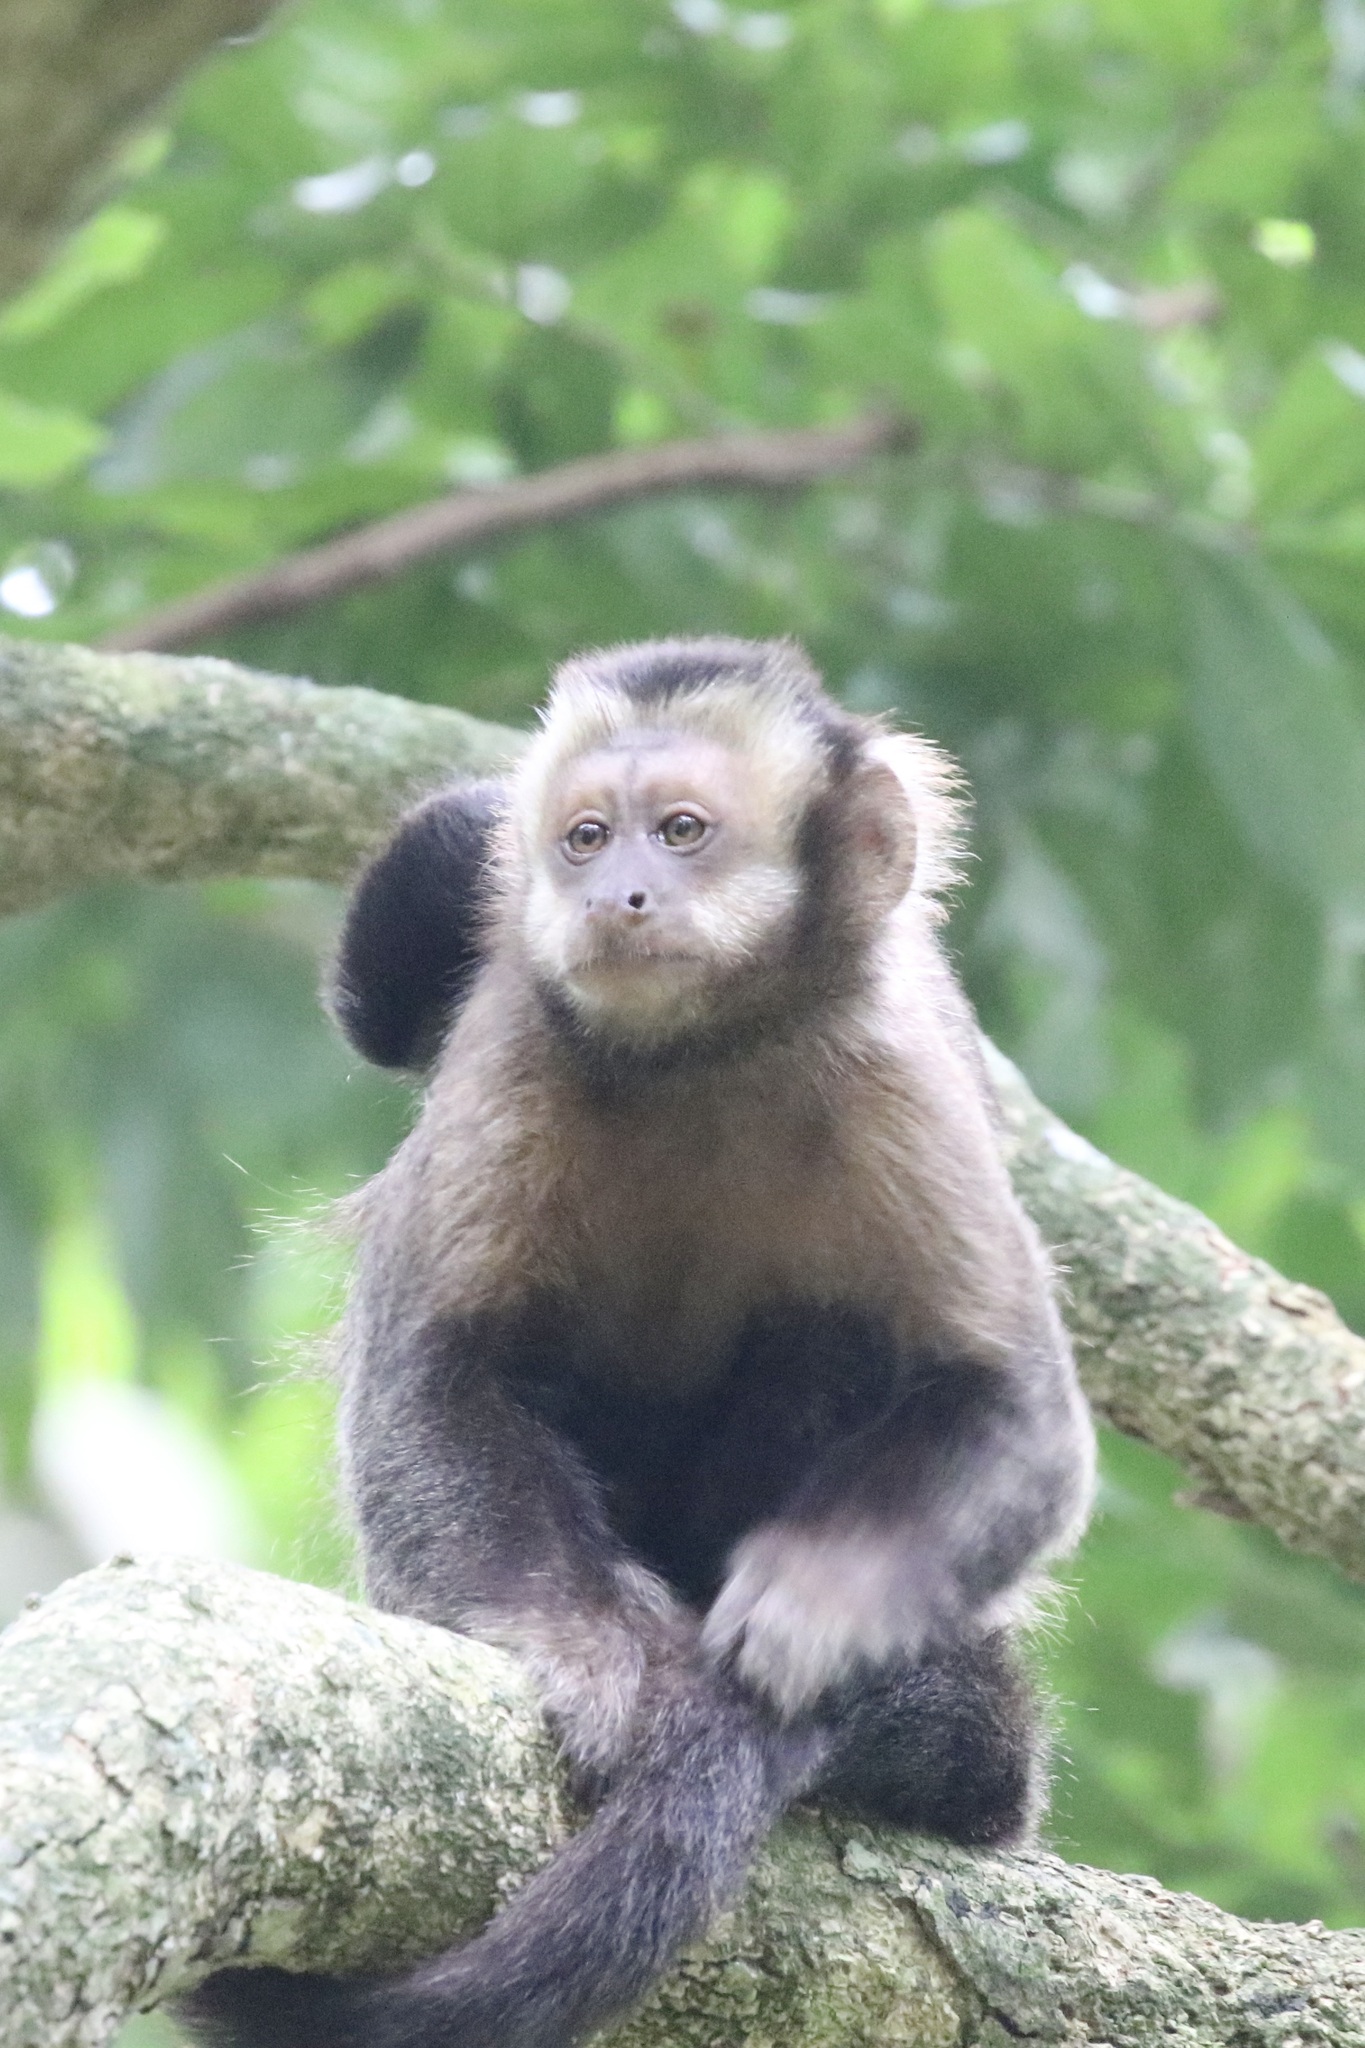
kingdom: Animalia
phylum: Chordata
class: Mammalia
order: Primates
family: Cebidae
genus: Sapajus
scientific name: Sapajus nigritus
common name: Black capuchin
